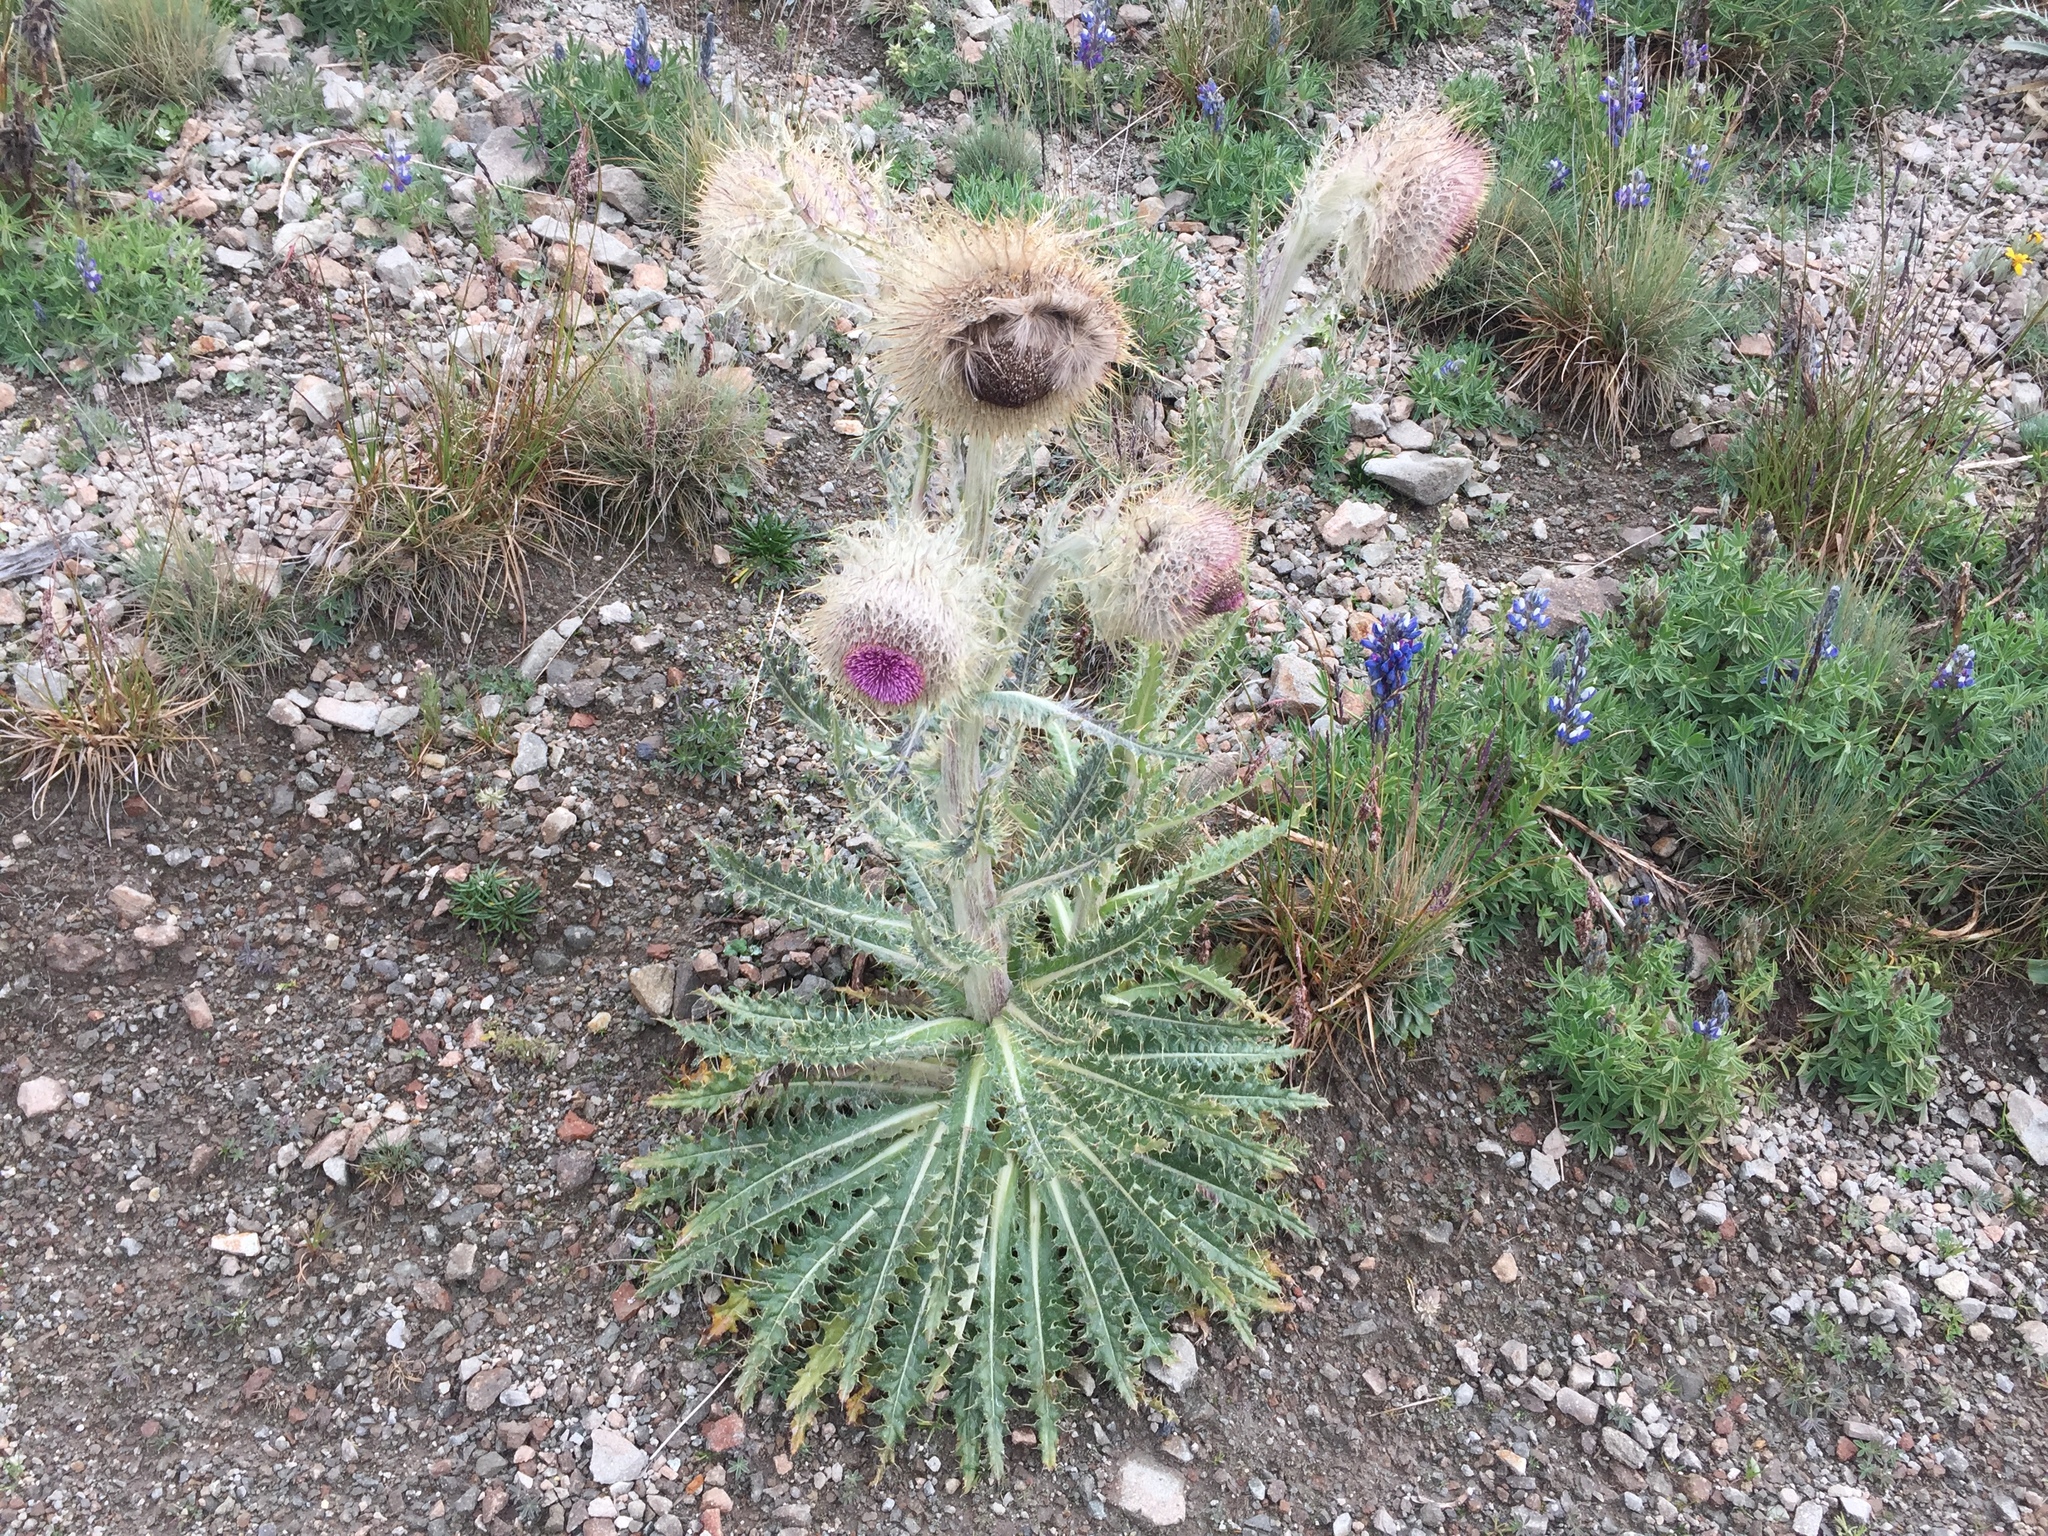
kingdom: Plantae
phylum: Tracheophyta
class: Magnoliopsida
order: Asterales
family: Asteraceae
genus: Cirsium
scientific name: Cirsium nivale
